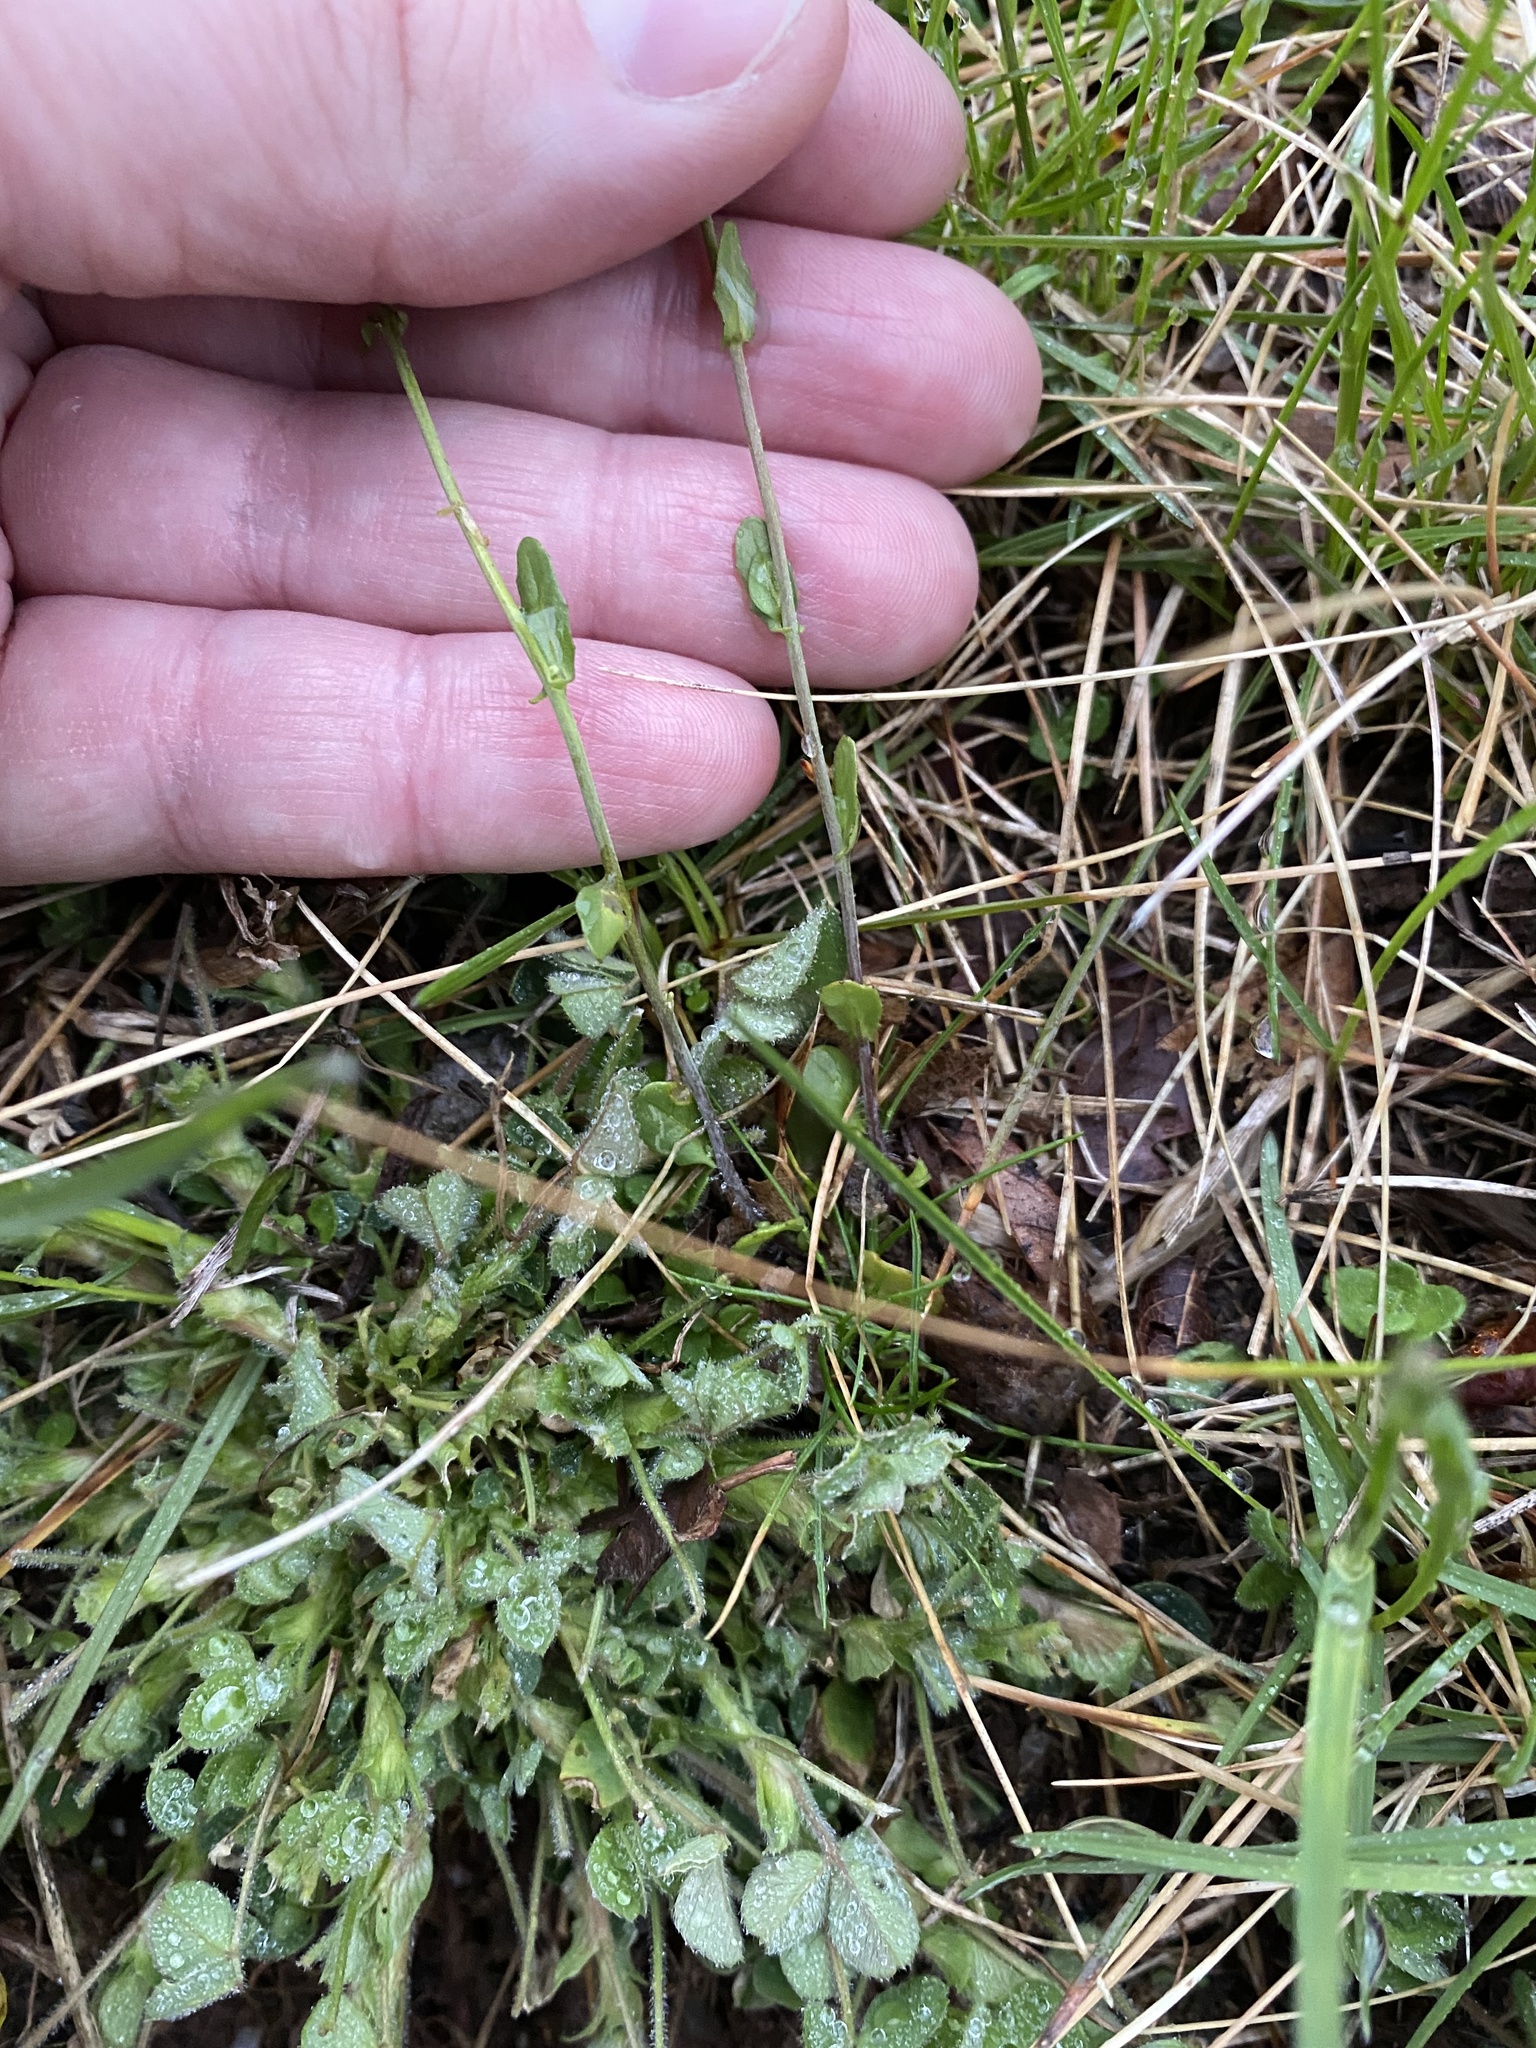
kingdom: Plantae
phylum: Tracheophyta
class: Magnoliopsida
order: Brassicales
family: Brassicaceae
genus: Mummenhoffia
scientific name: Mummenhoffia alliacea
